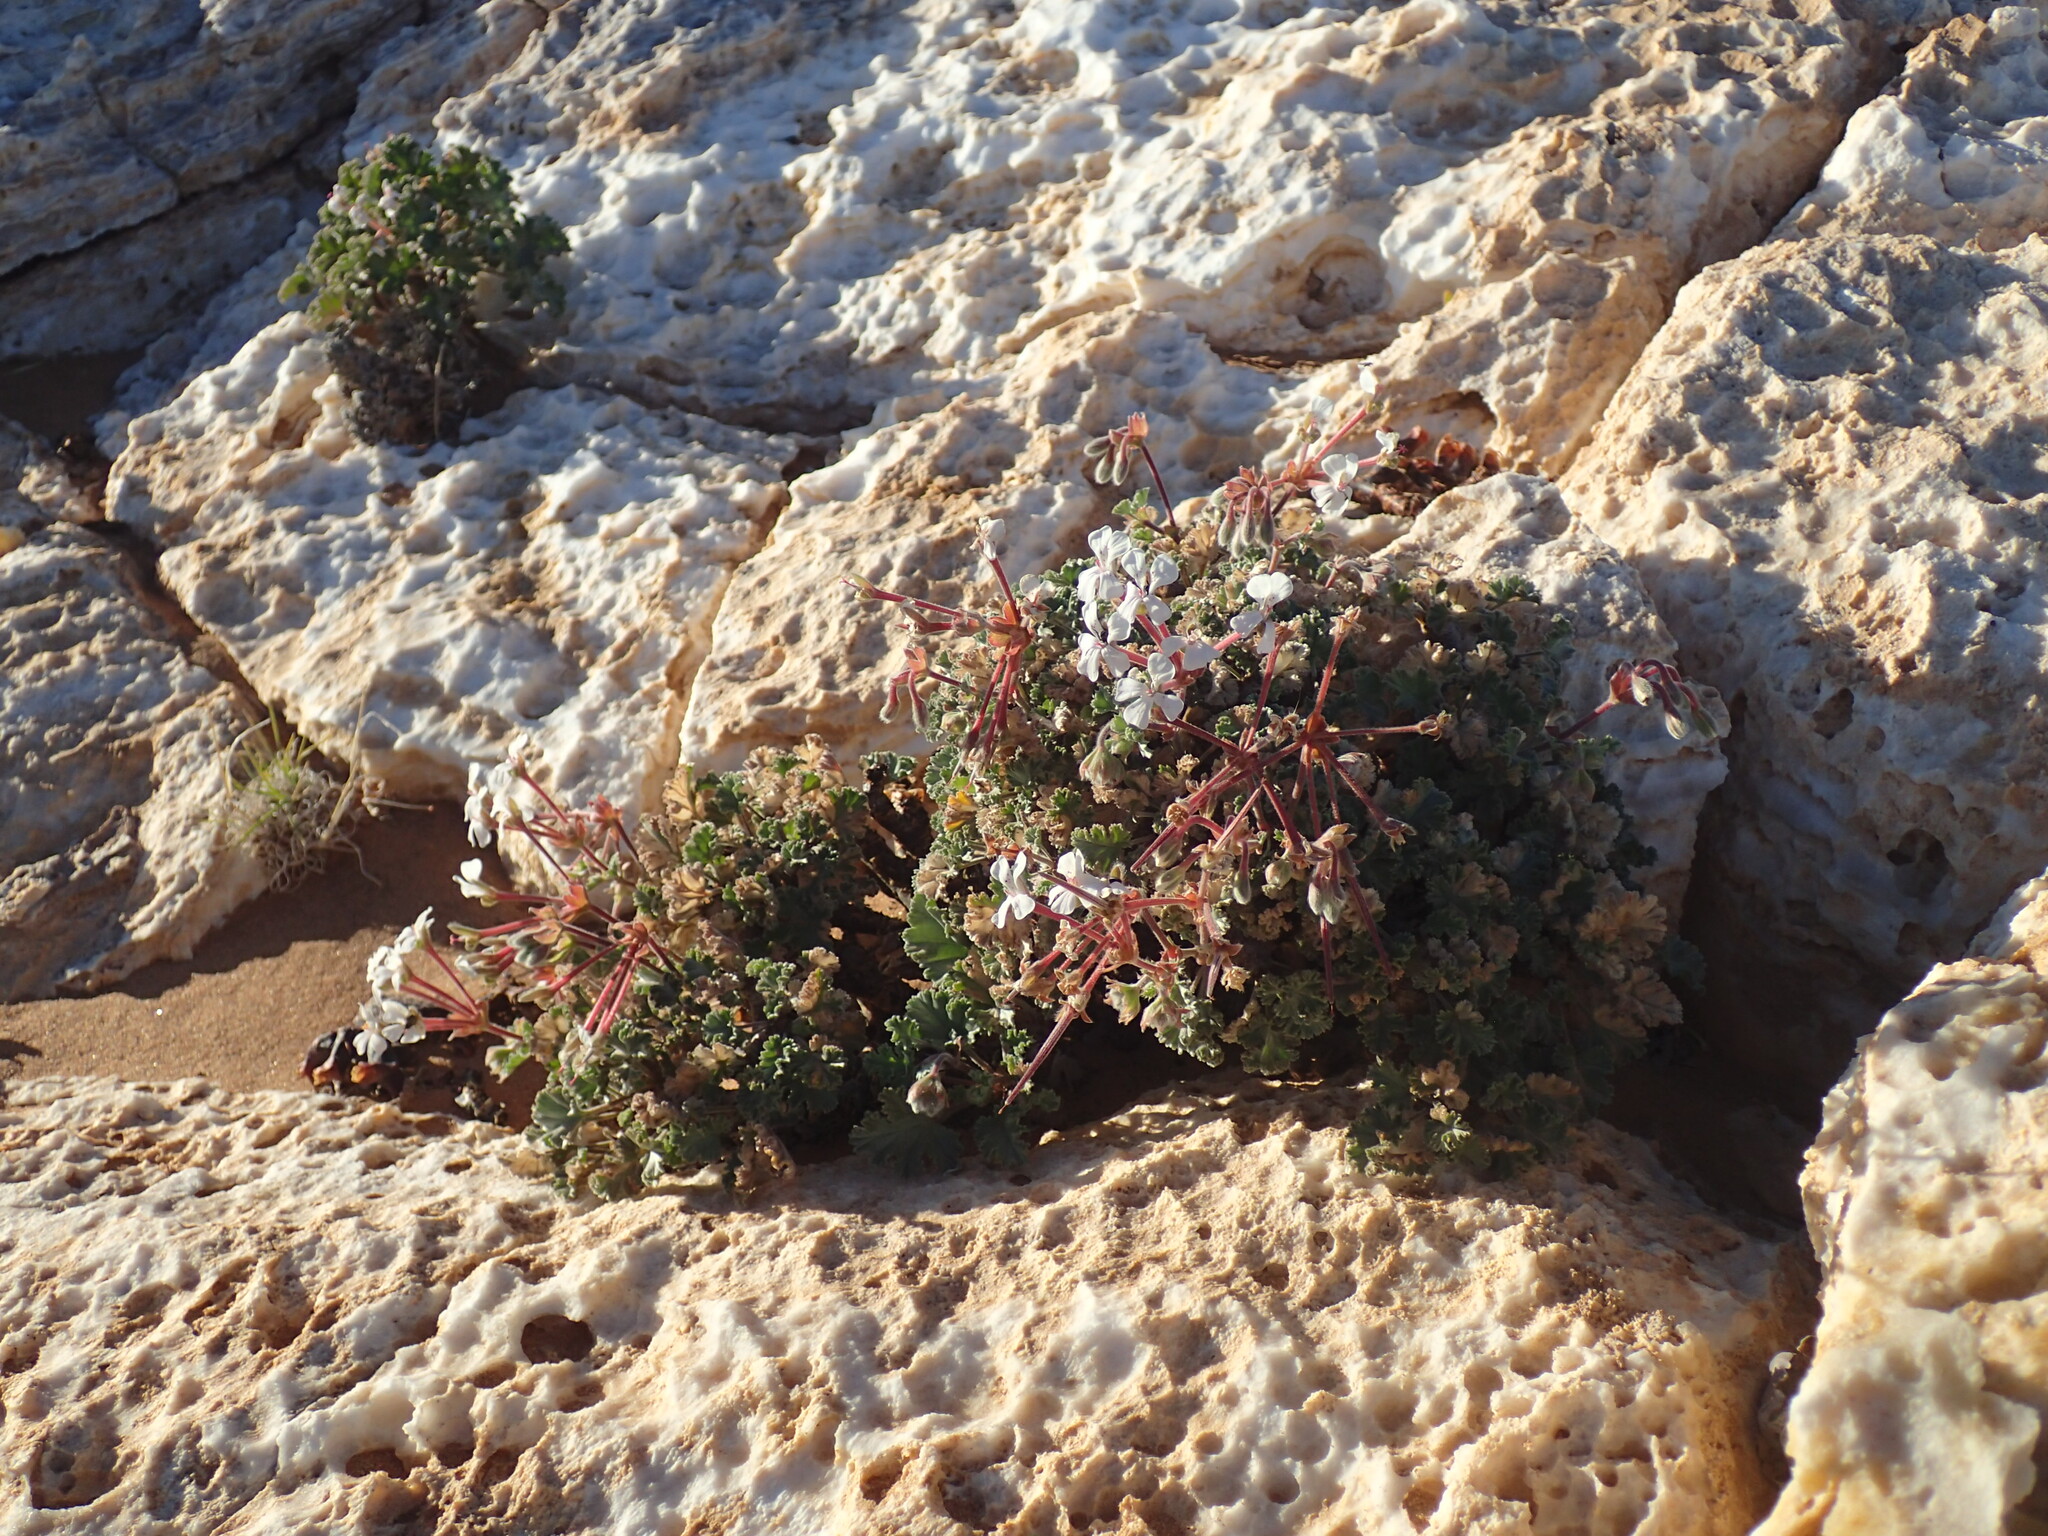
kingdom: Plantae
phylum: Tracheophyta
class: Magnoliopsida
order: Geraniales
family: Geraniaceae
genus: Pelargonium
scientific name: Pelargonium crassicaule
